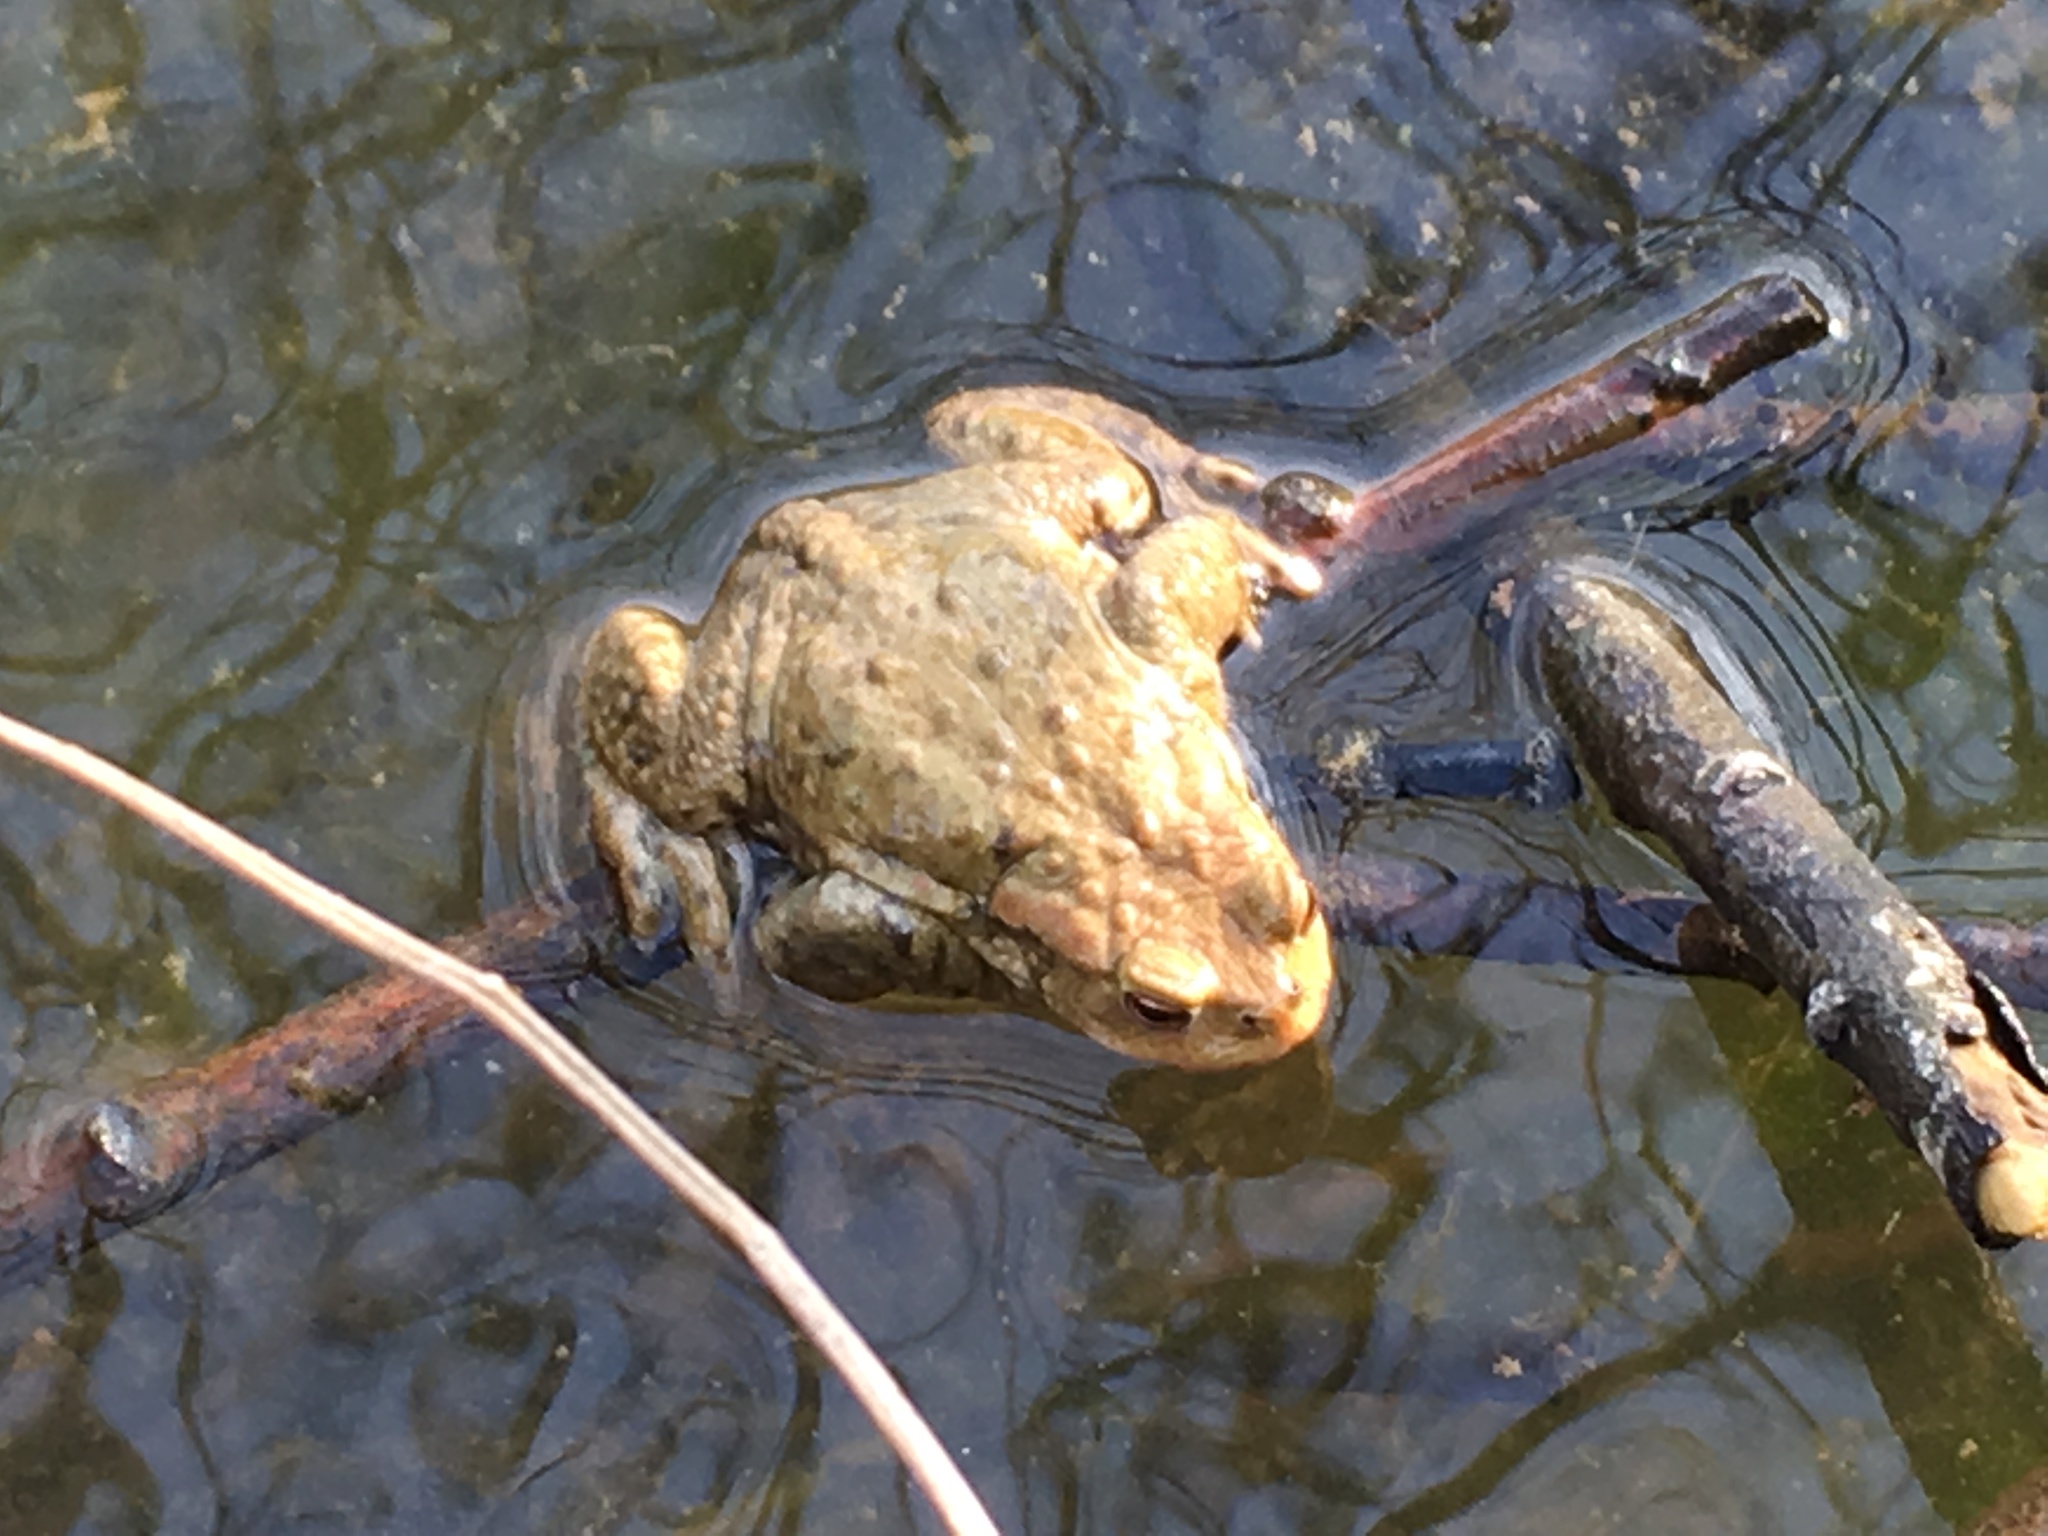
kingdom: Animalia
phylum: Chordata
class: Amphibia
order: Anura
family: Bufonidae
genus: Bufo
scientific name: Bufo bufo
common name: Common toad
